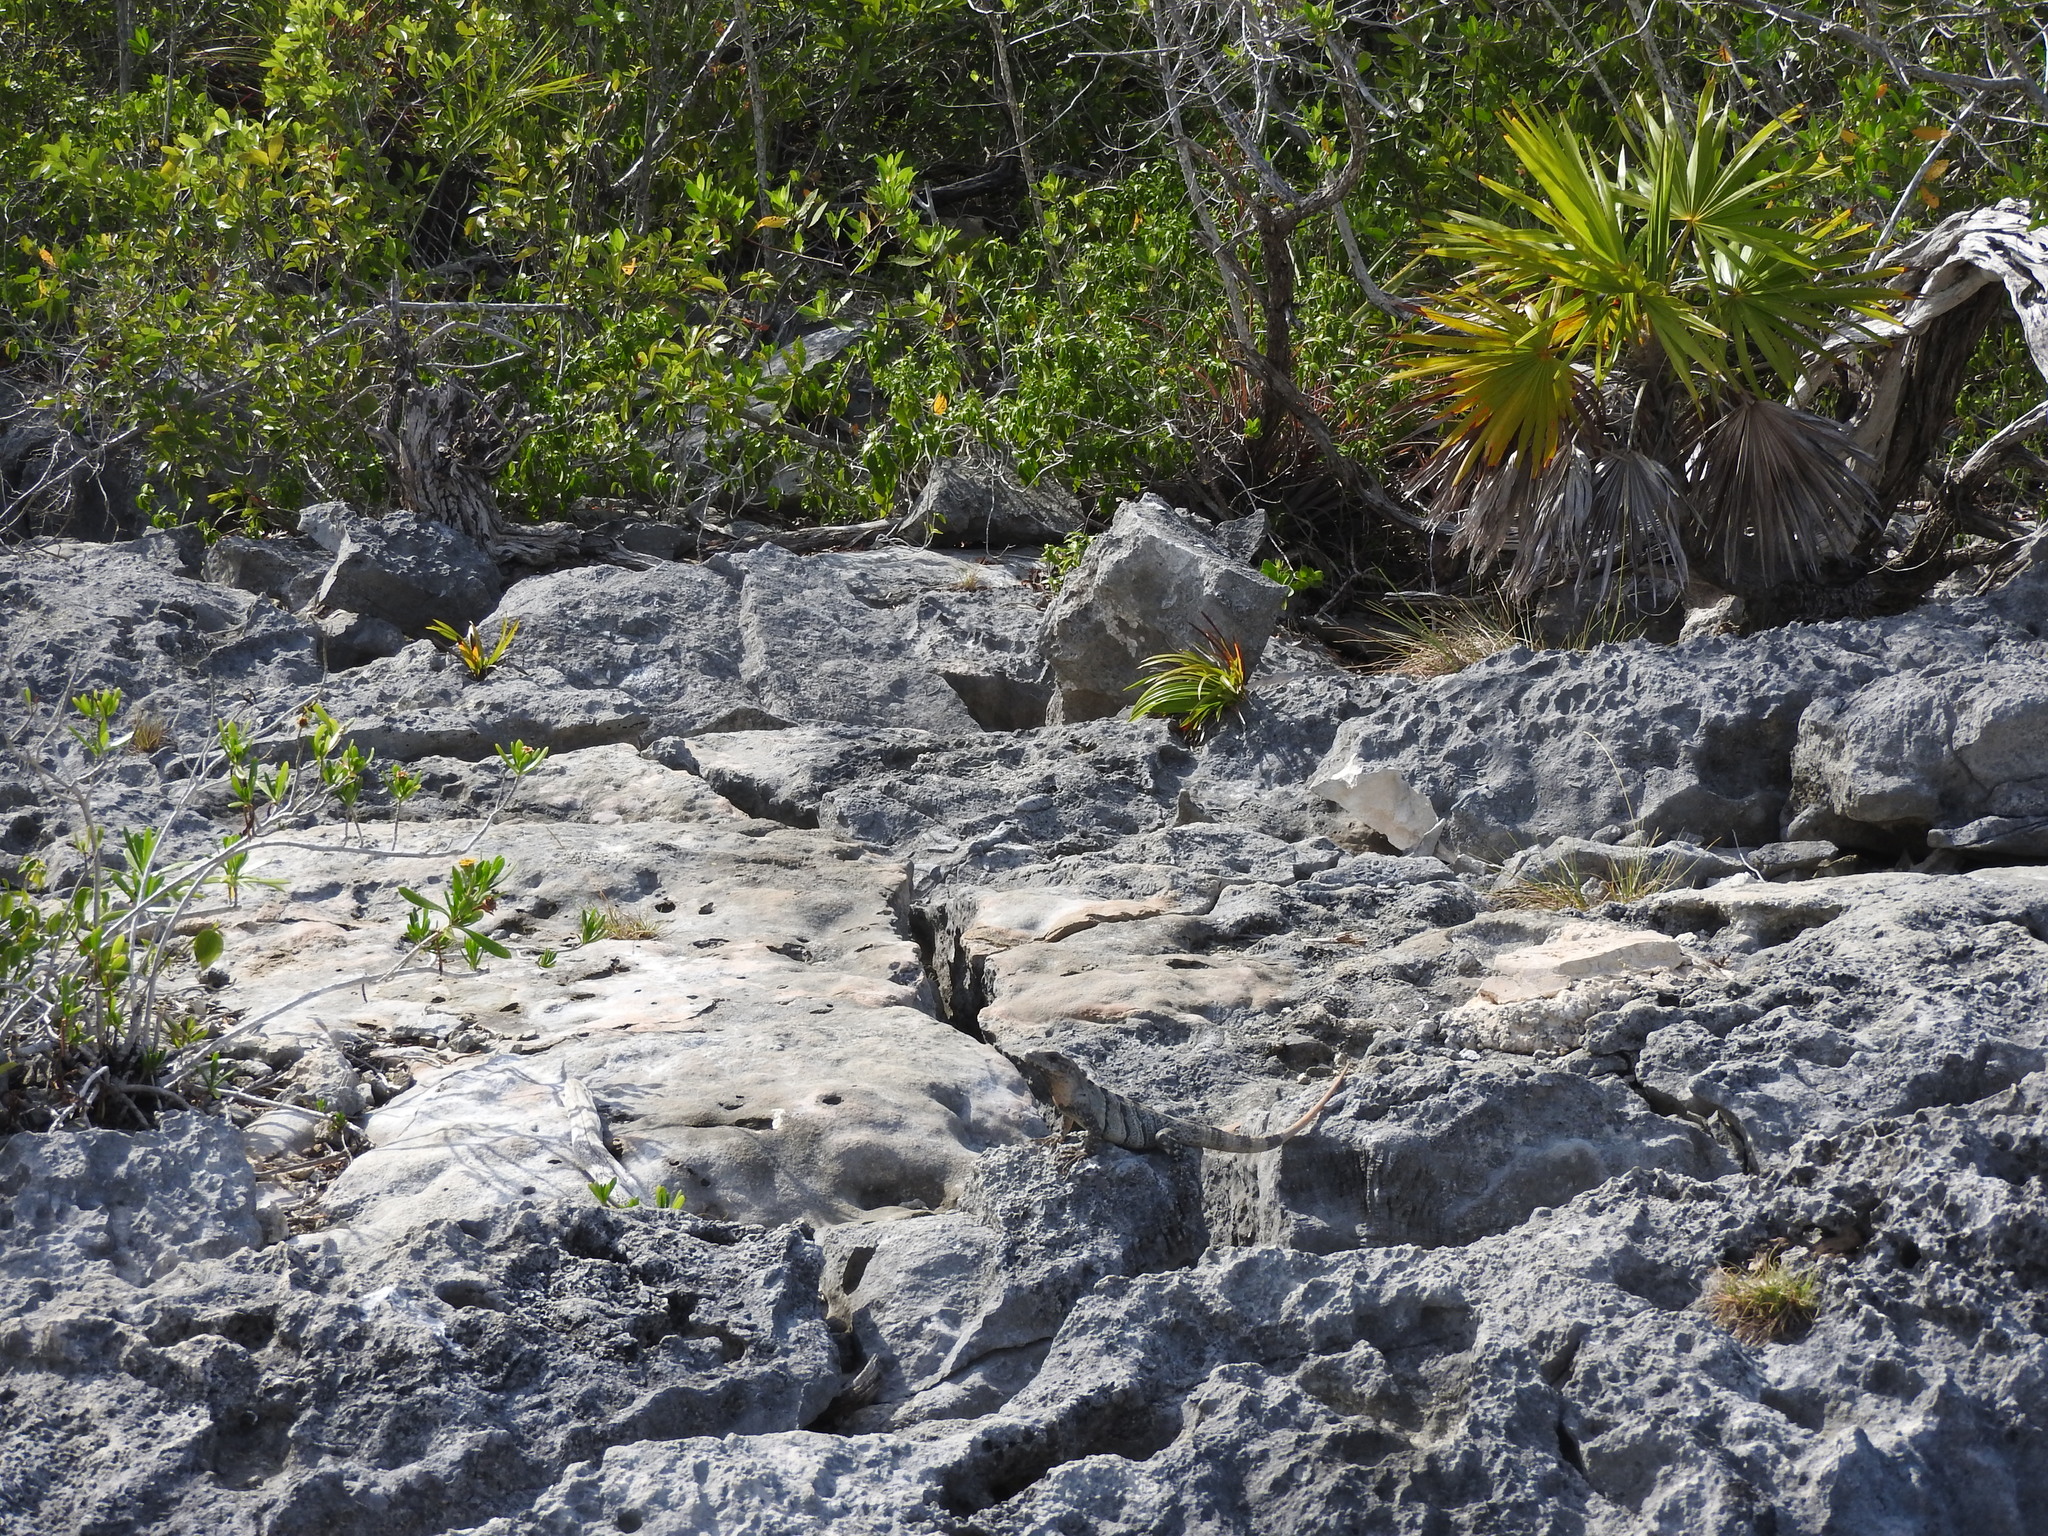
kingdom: Animalia
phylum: Chordata
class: Squamata
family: Iguanidae
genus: Ctenosaura
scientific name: Ctenosaura similis
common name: Black spiny-tailed iguana
